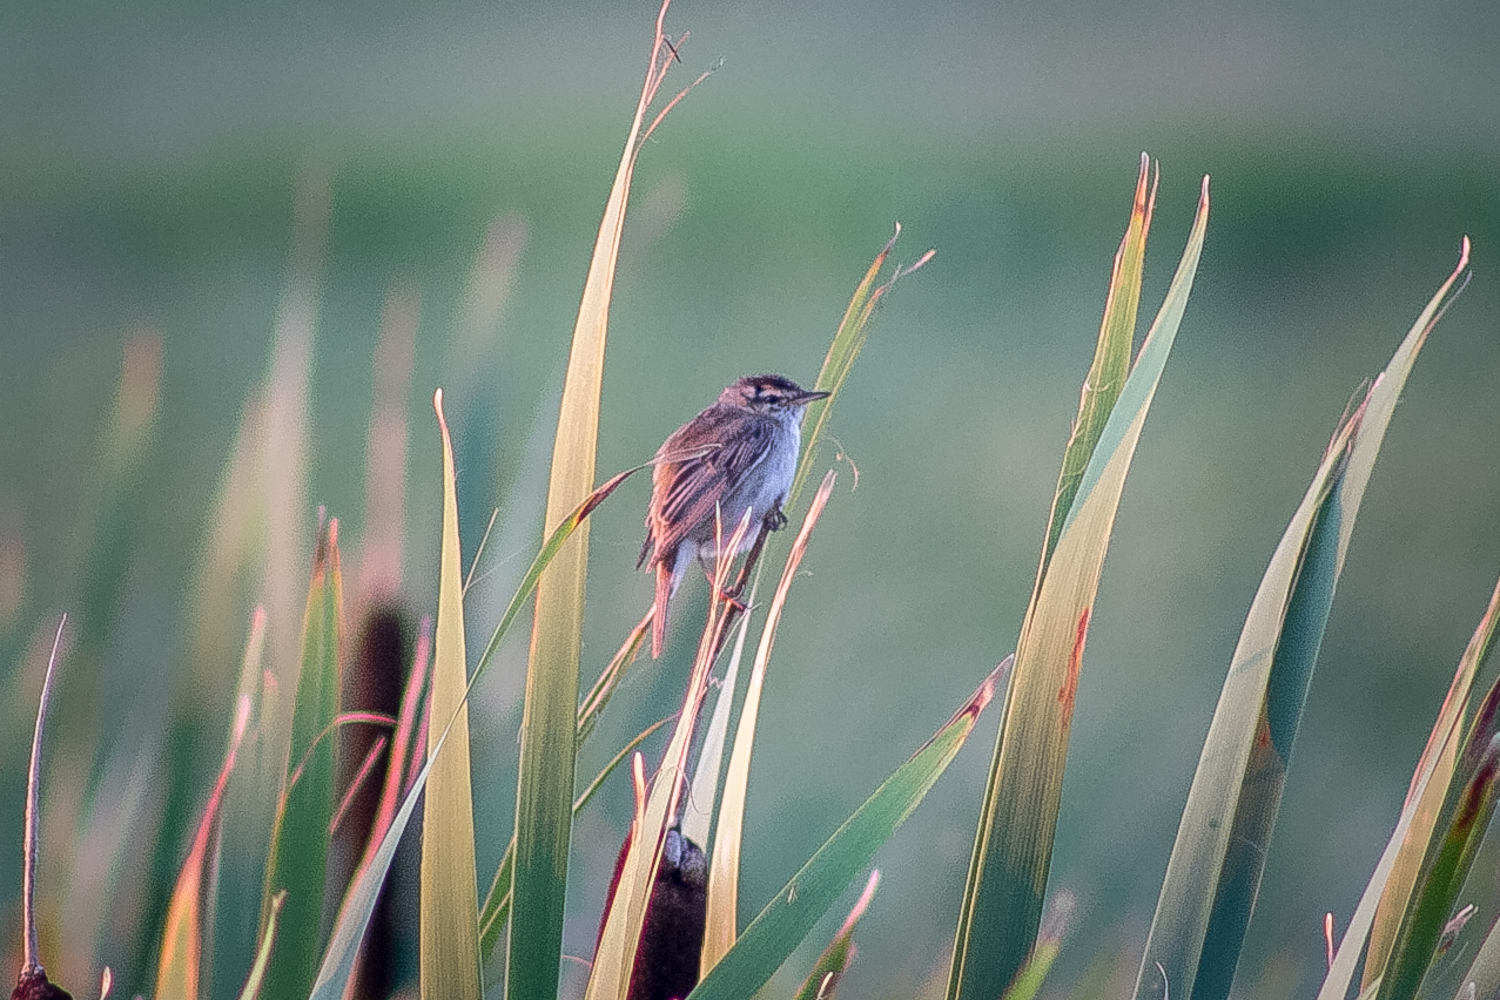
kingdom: Animalia
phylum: Chordata
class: Aves
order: Passeriformes
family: Acrocephalidae
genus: Acrocephalus
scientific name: Acrocephalus schoenobaenus
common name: Sedge warbler
